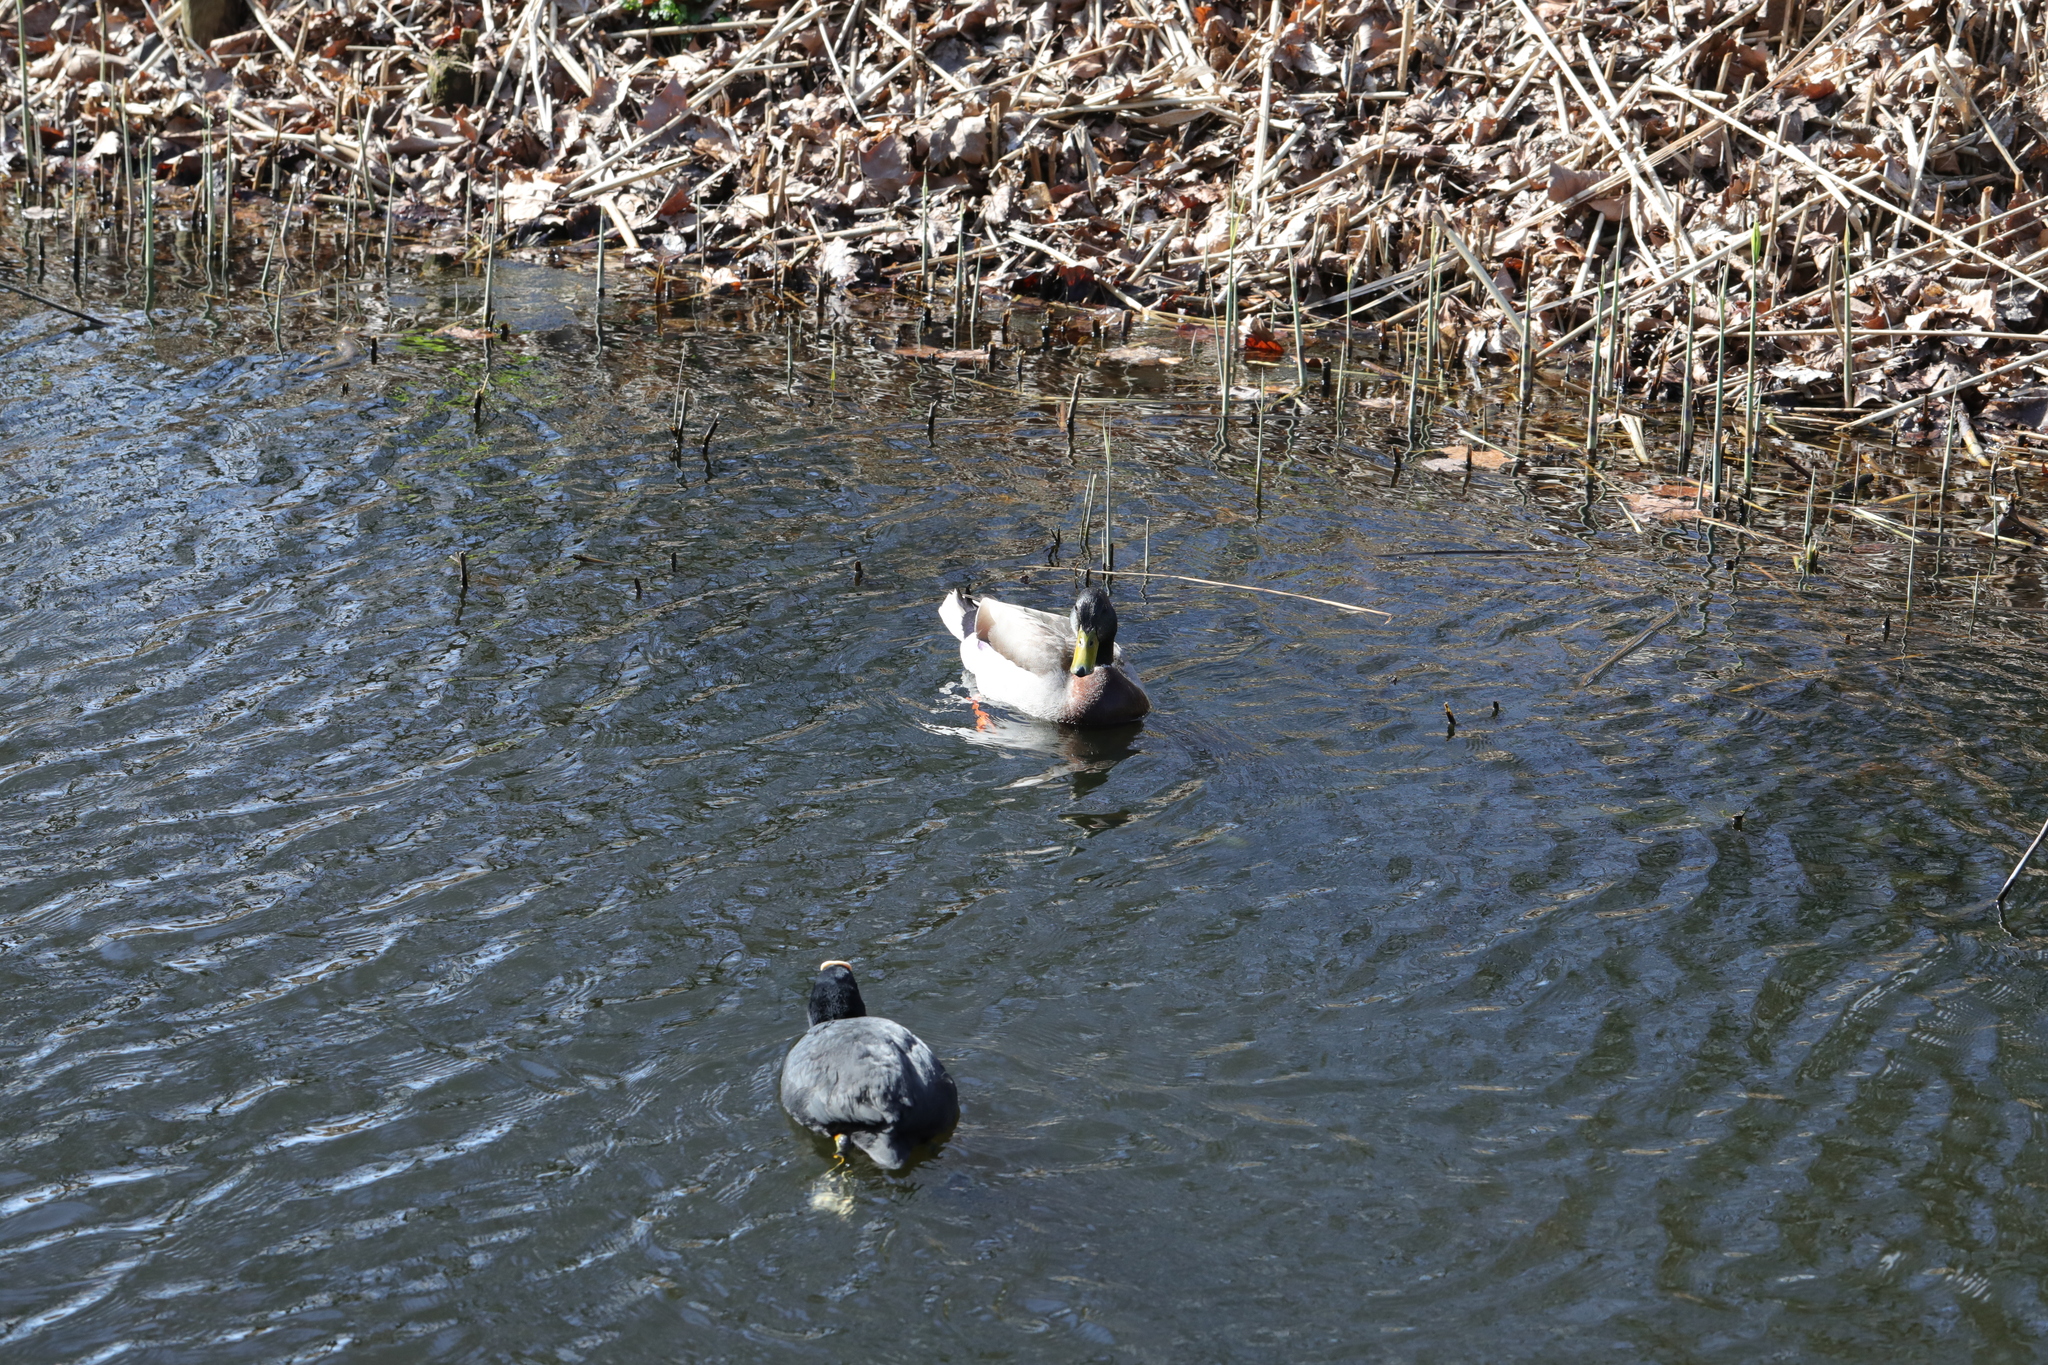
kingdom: Animalia
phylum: Chordata
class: Aves
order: Anseriformes
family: Anatidae
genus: Anas
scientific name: Anas platyrhynchos
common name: Mallard
